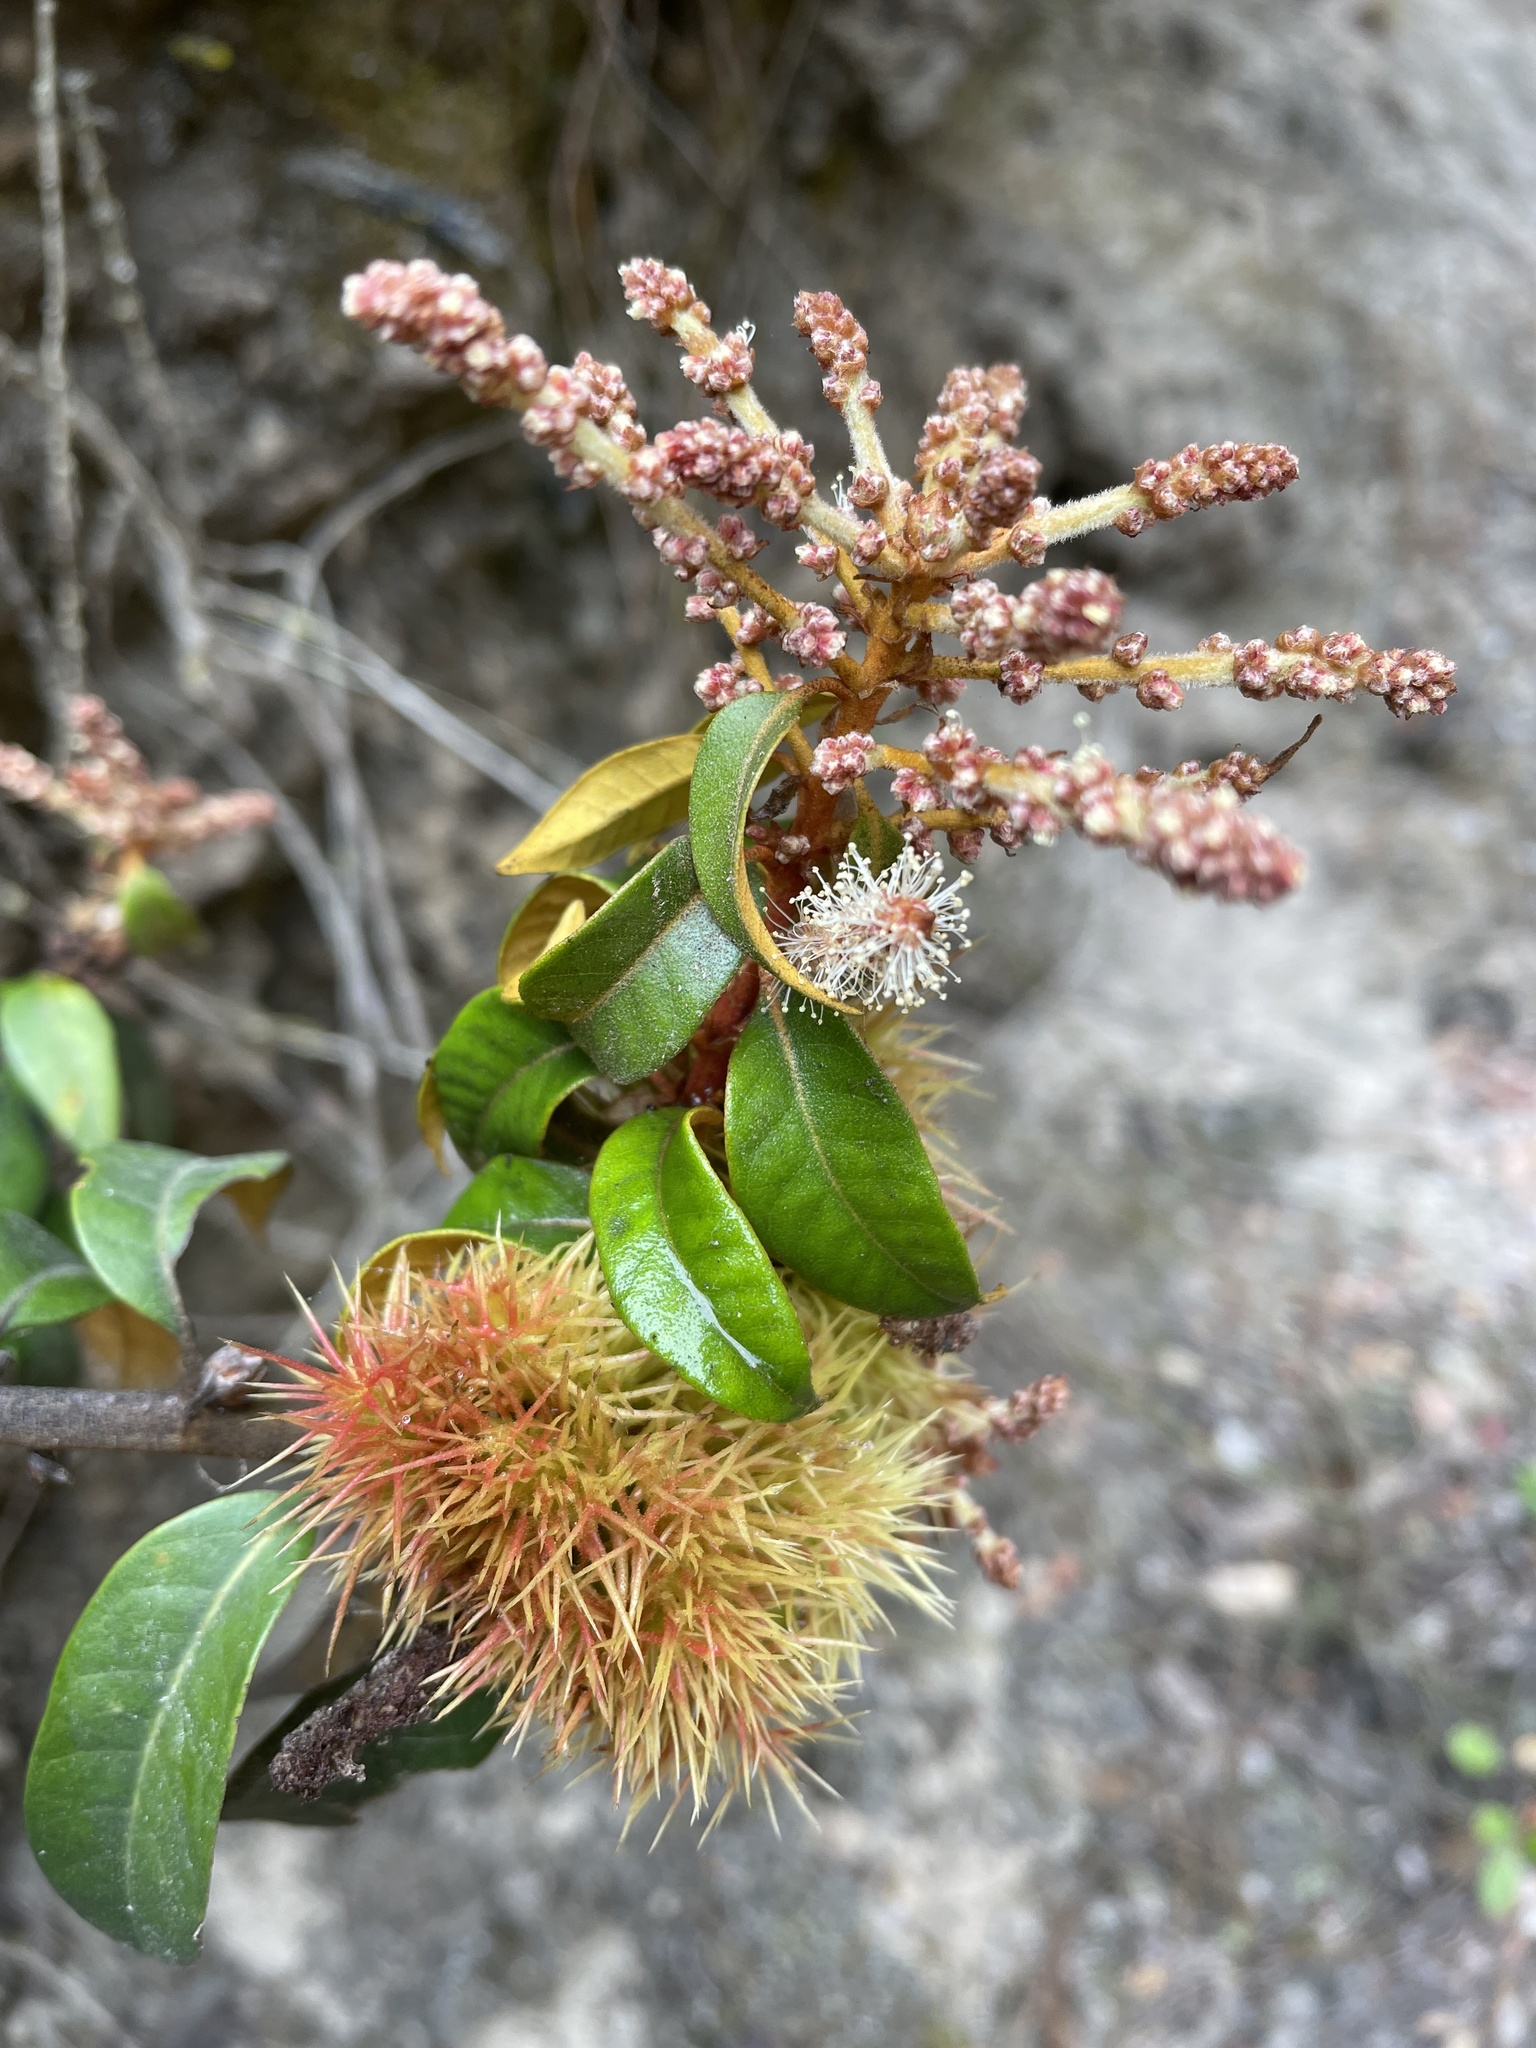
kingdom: Plantae
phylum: Tracheophyta
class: Magnoliopsida
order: Fagales
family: Fagaceae
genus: Chrysolepis
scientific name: Chrysolepis chrysophylla
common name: Giant chinquapin
